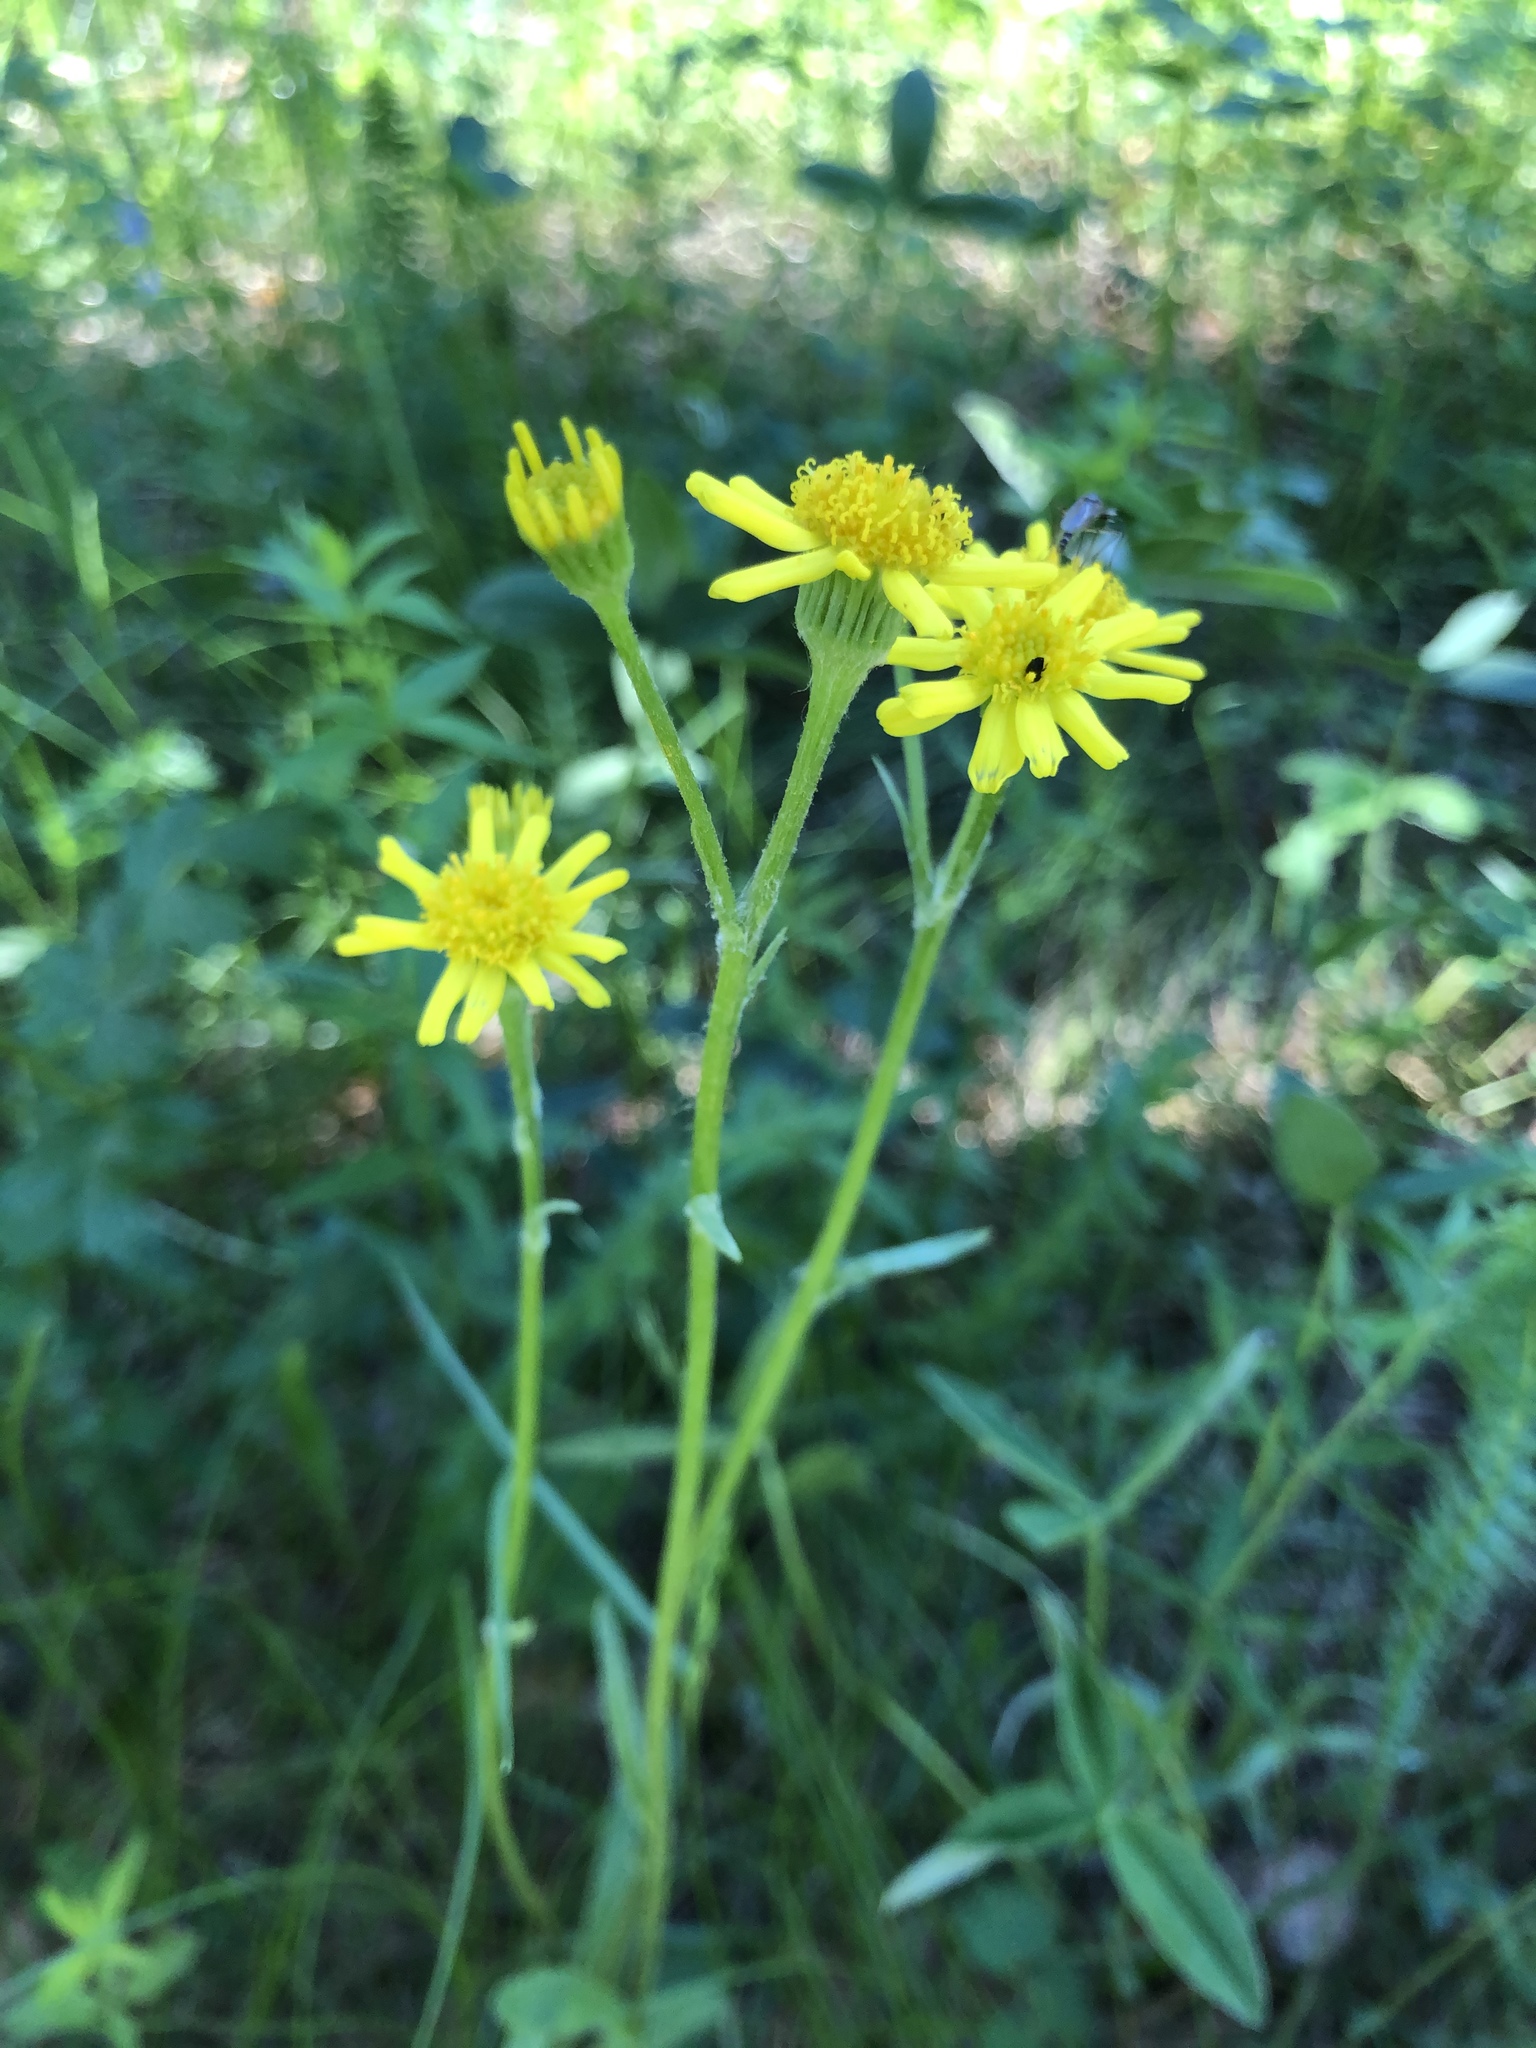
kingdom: Plantae
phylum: Tracheophyta
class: Magnoliopsida
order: Asterales
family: Asteraceae
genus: Tephroseris
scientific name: Tephroseris integrifolia
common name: Field fleawort
